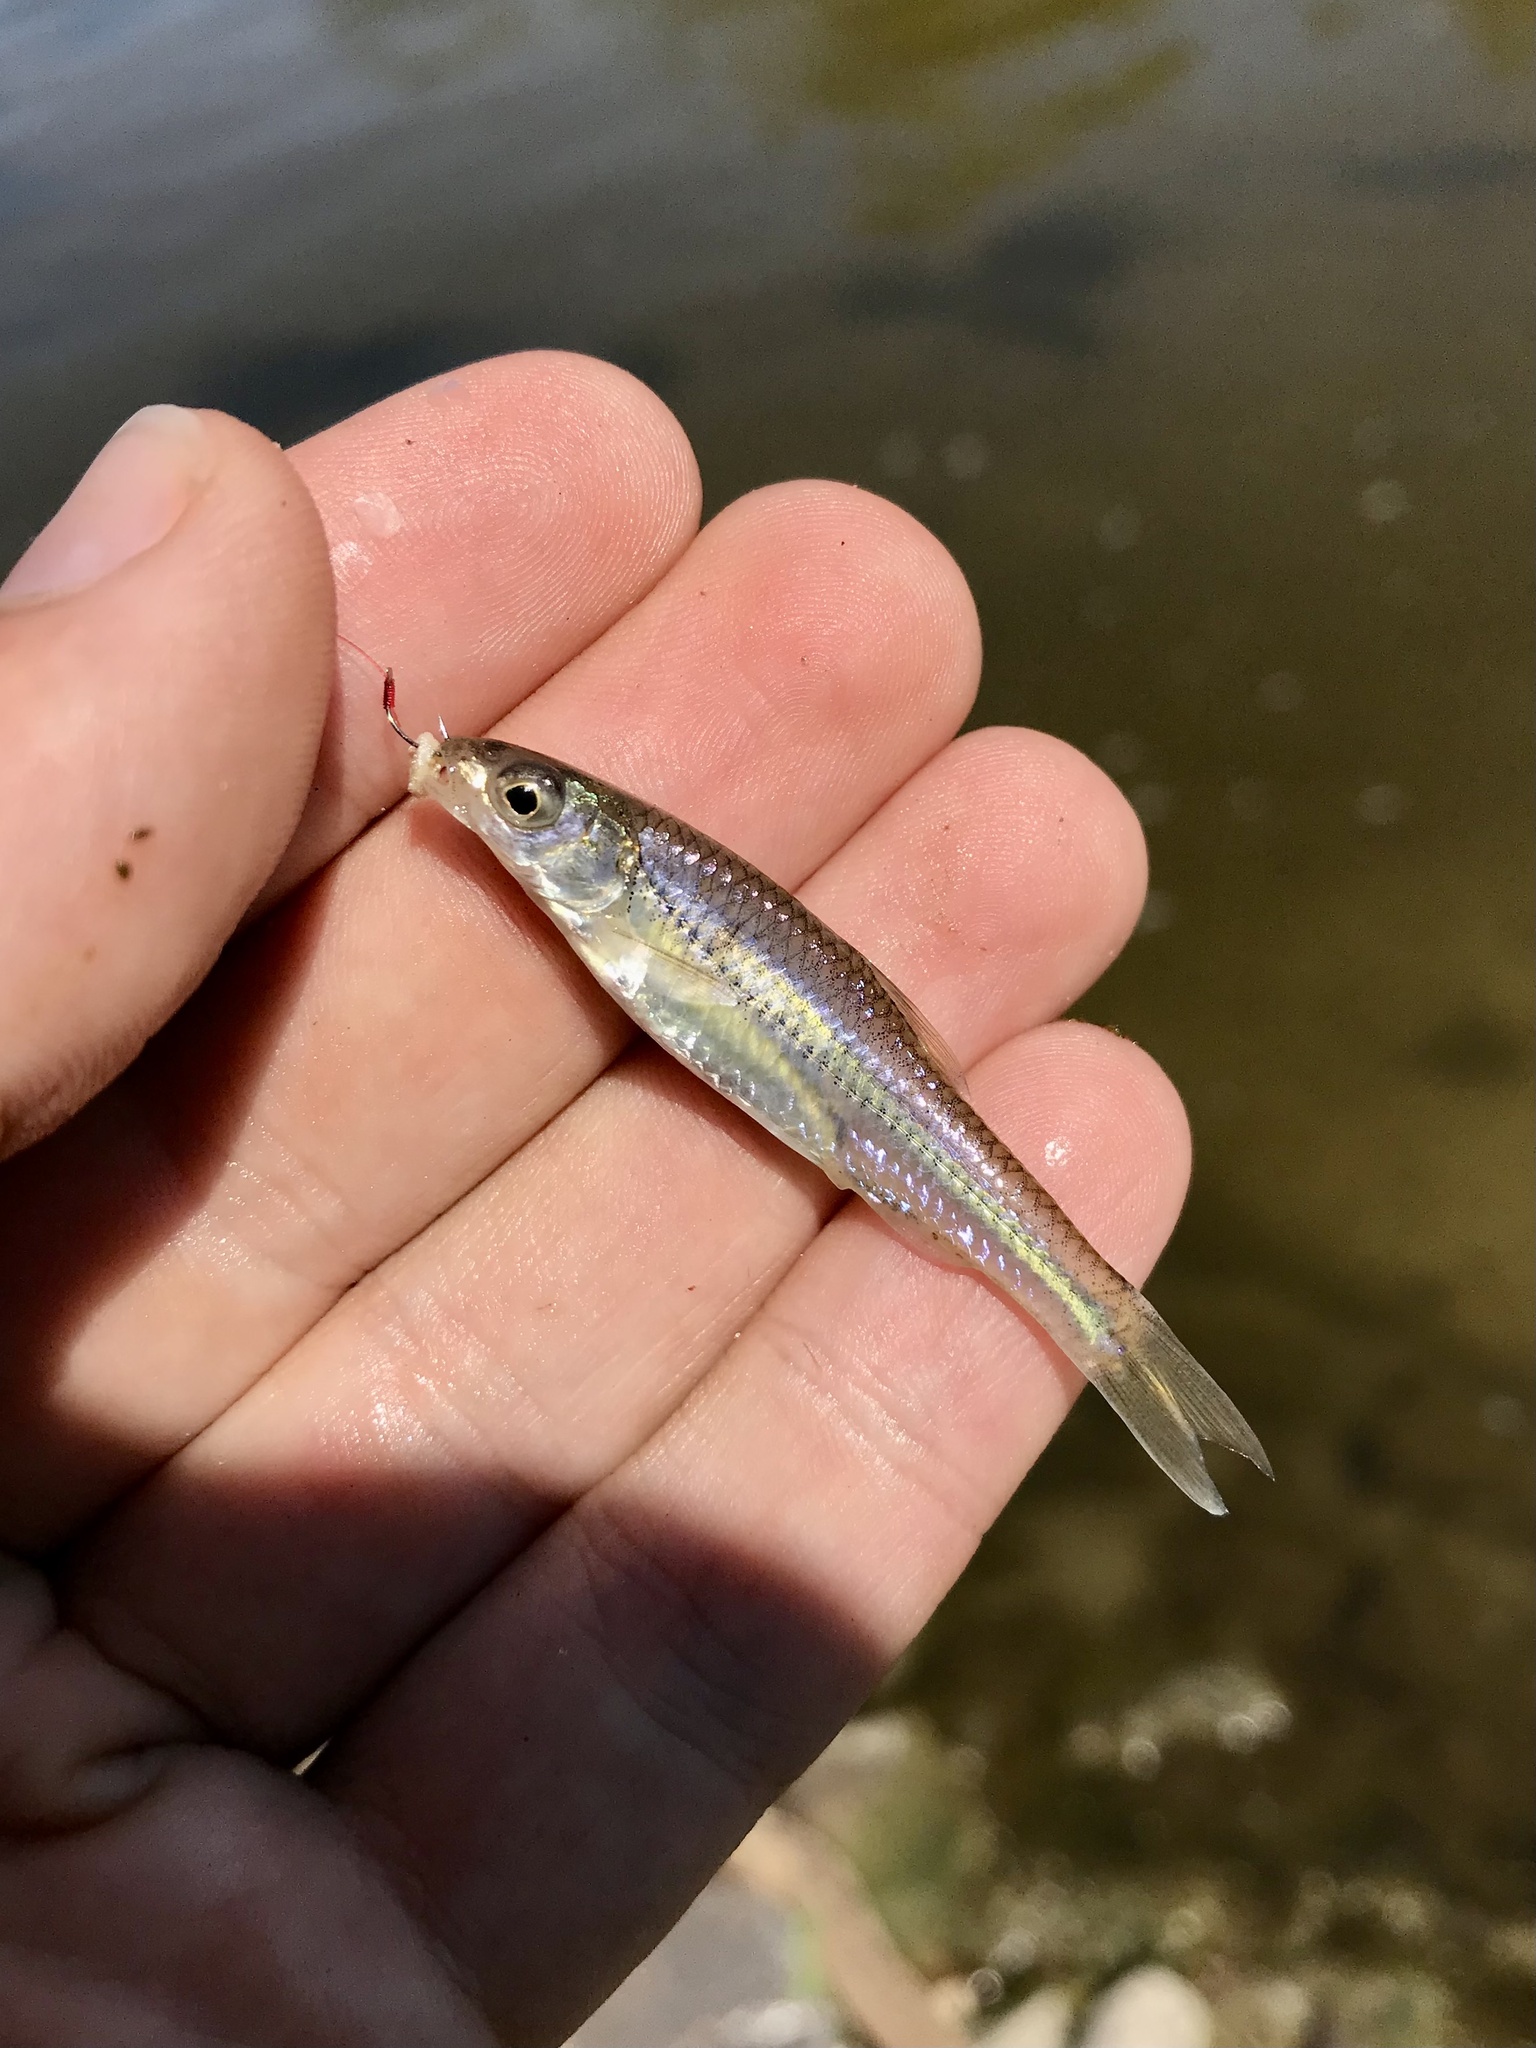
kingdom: Animalia
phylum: Chordata
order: Cypriniformes
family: Cyprinidae
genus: Notropis
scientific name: Notropis
